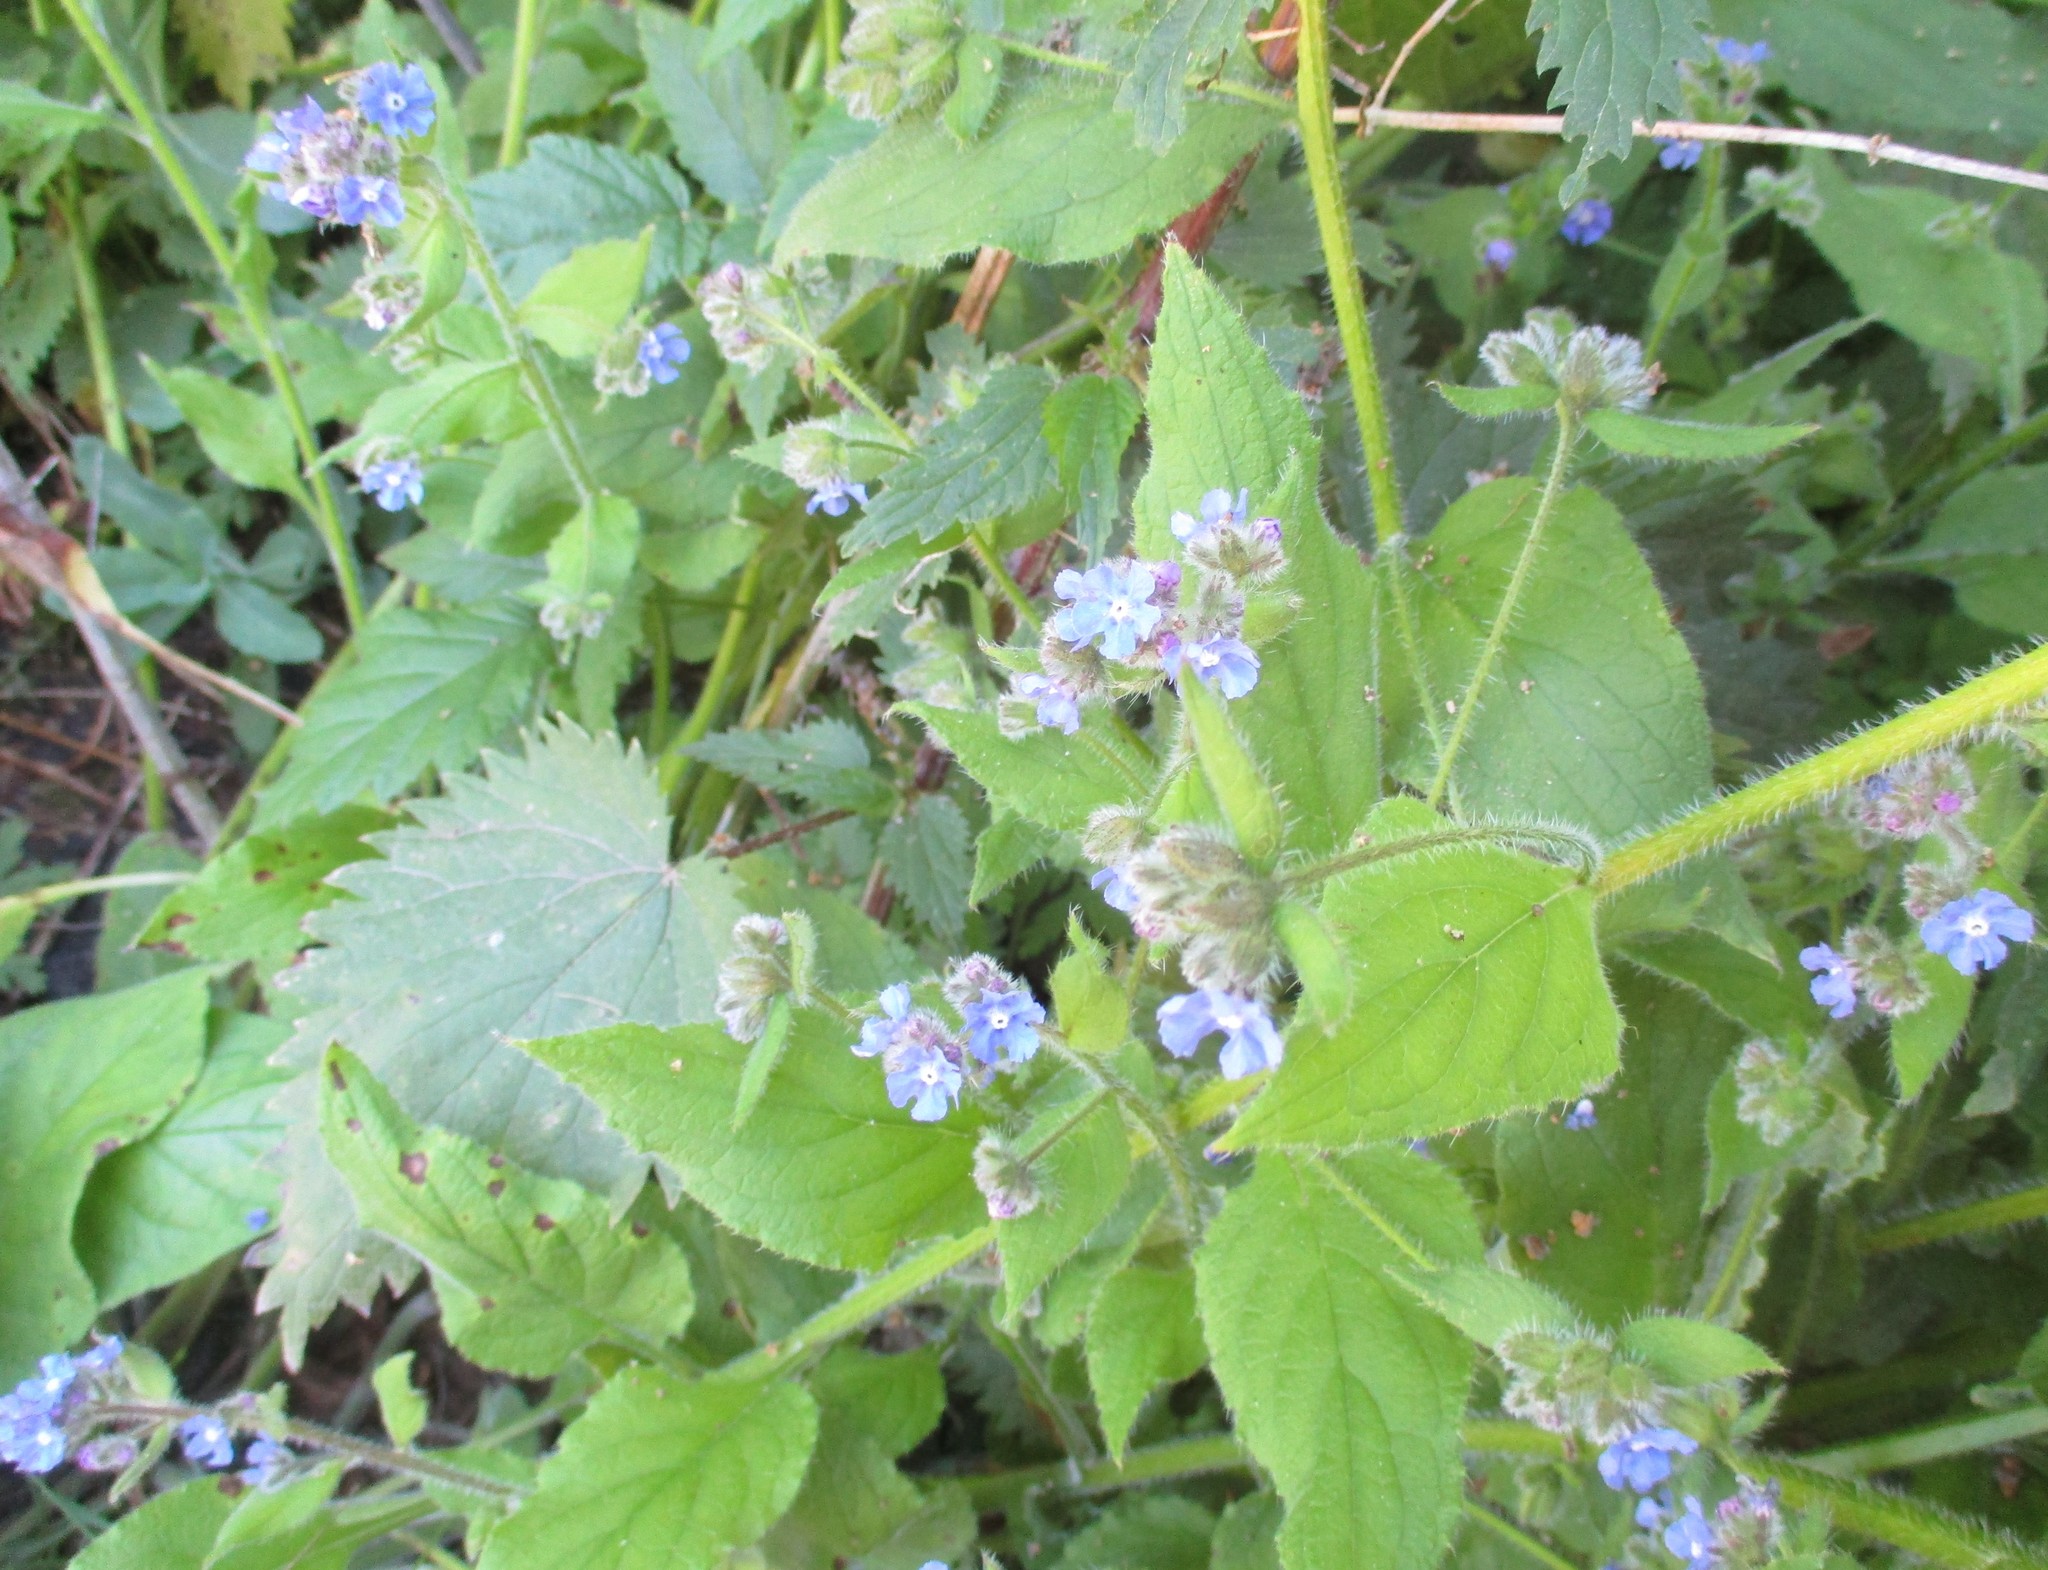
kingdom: Plantae
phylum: Tracheophyta
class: Magnoliopsida
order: Boraginales
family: Boraginaceae
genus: Pentaglottis
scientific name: Pentaglottis sempervirens
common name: Green alkanet
